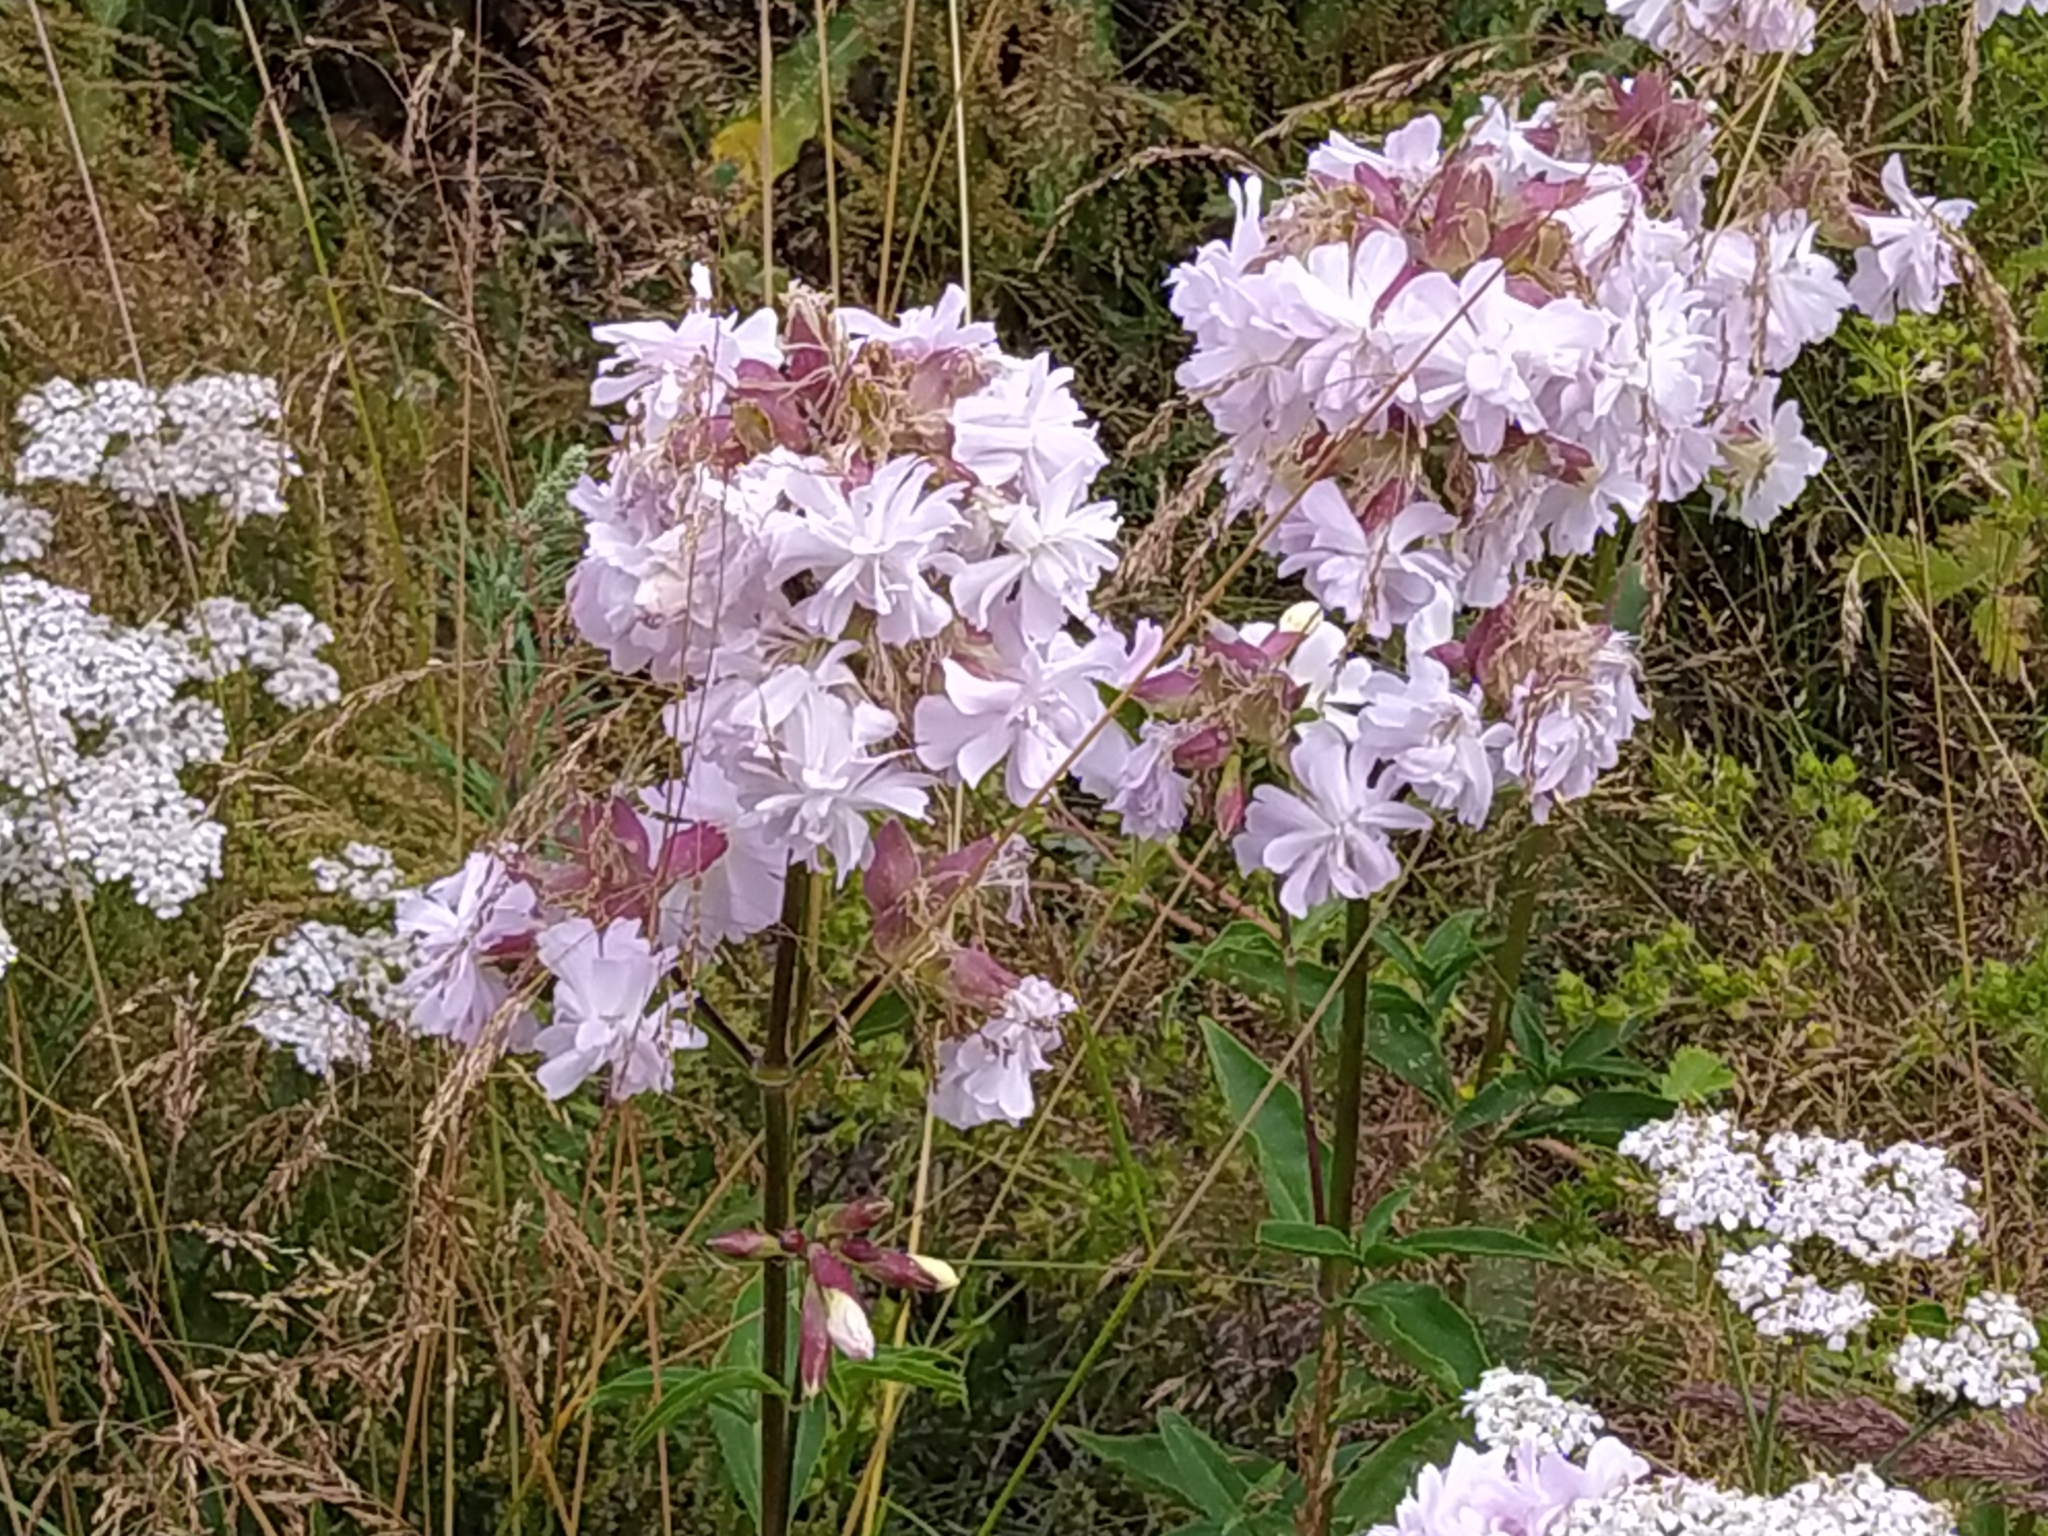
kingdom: Plantae
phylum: Tracheophyta
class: Magnoliopsida
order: Caryophyllales
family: Caryophyllaceae
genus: Saponaria
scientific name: Saponaria officinalis
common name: Soapwort
